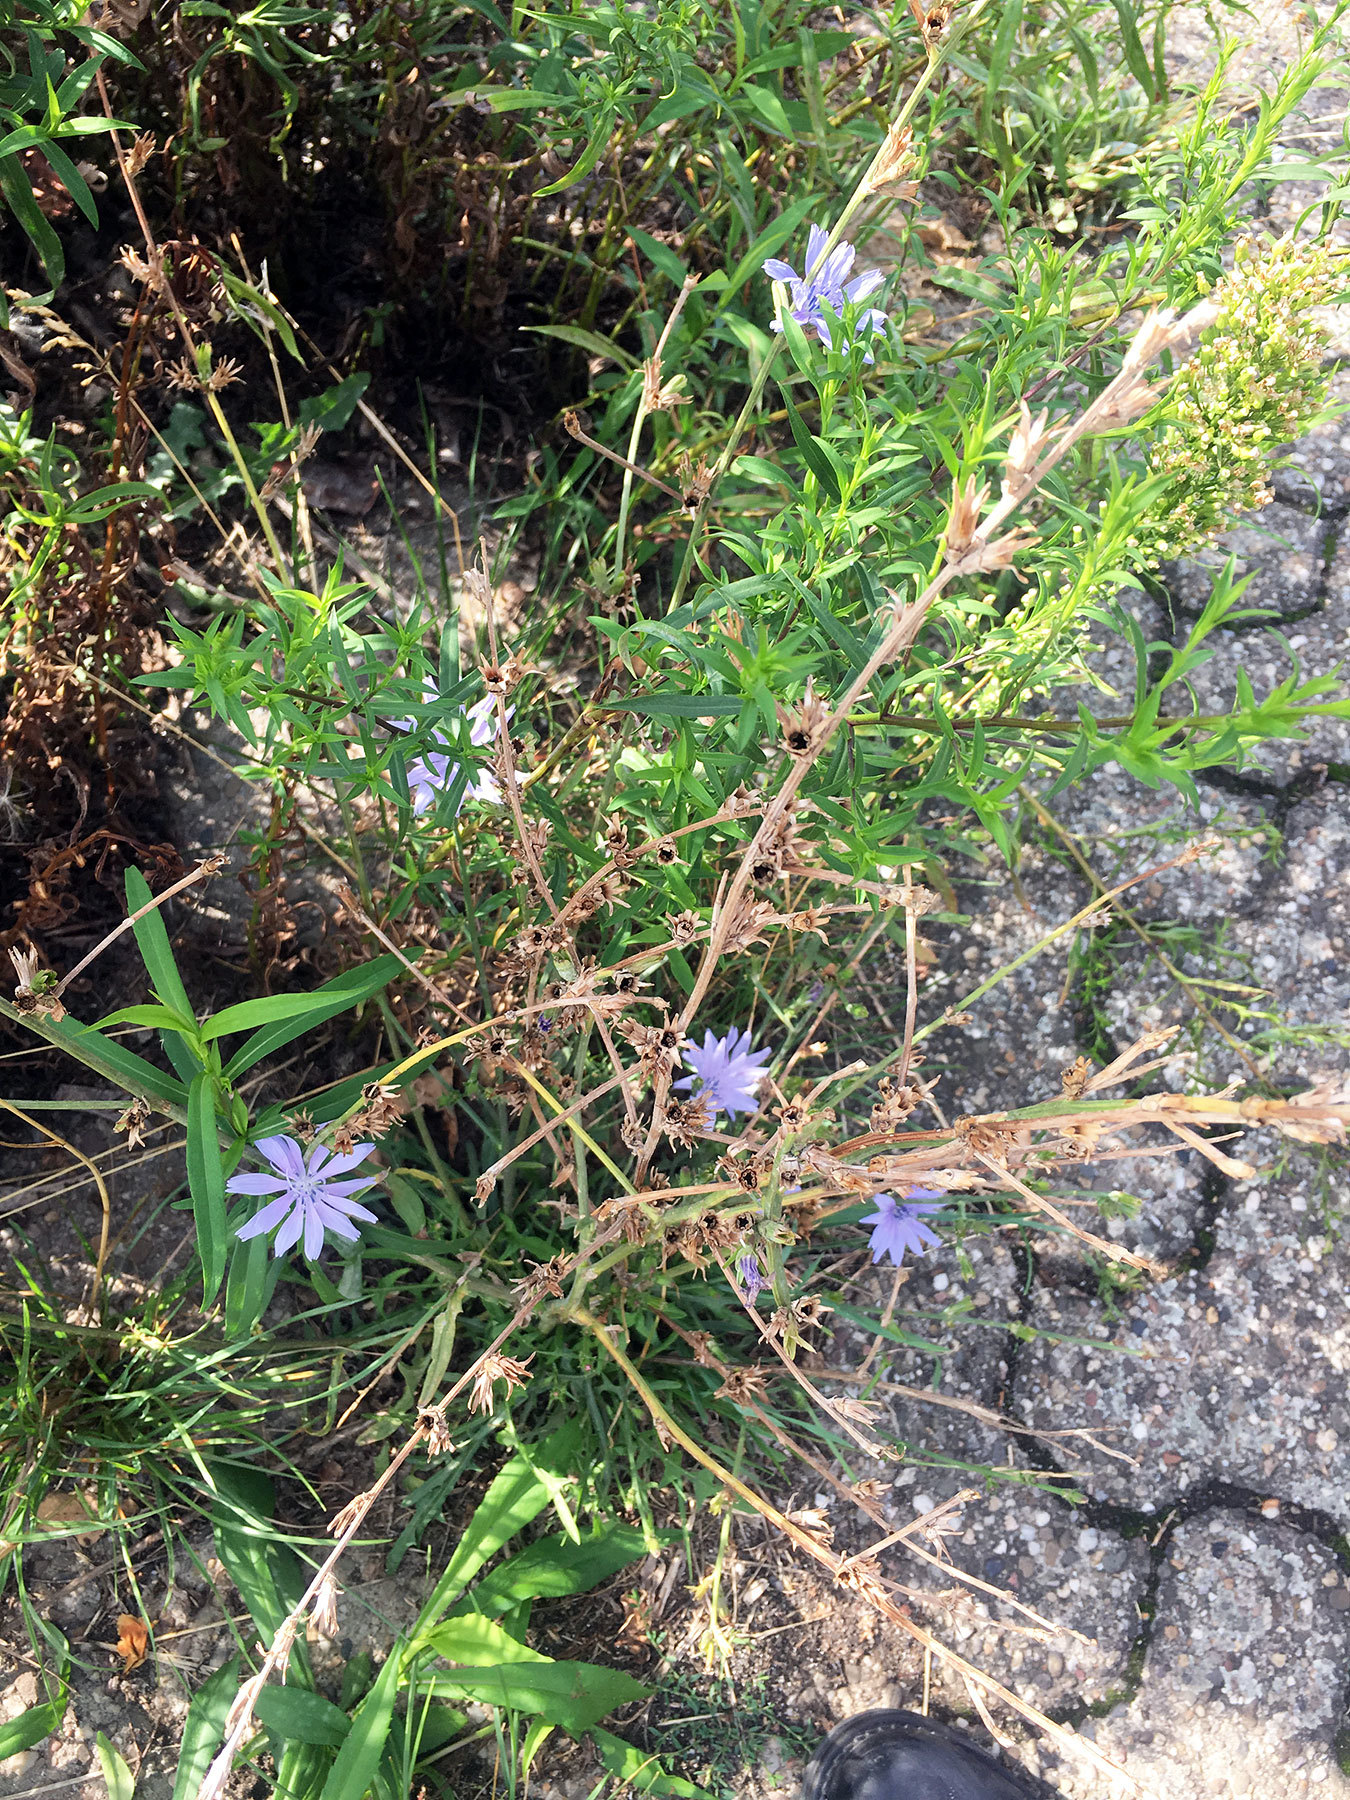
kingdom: Plantae
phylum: Tracheophyta
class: Magnoliopsida
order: Asterales
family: Asteraceae
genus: Cichorium
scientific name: Cichorium intybus
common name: Chicory
